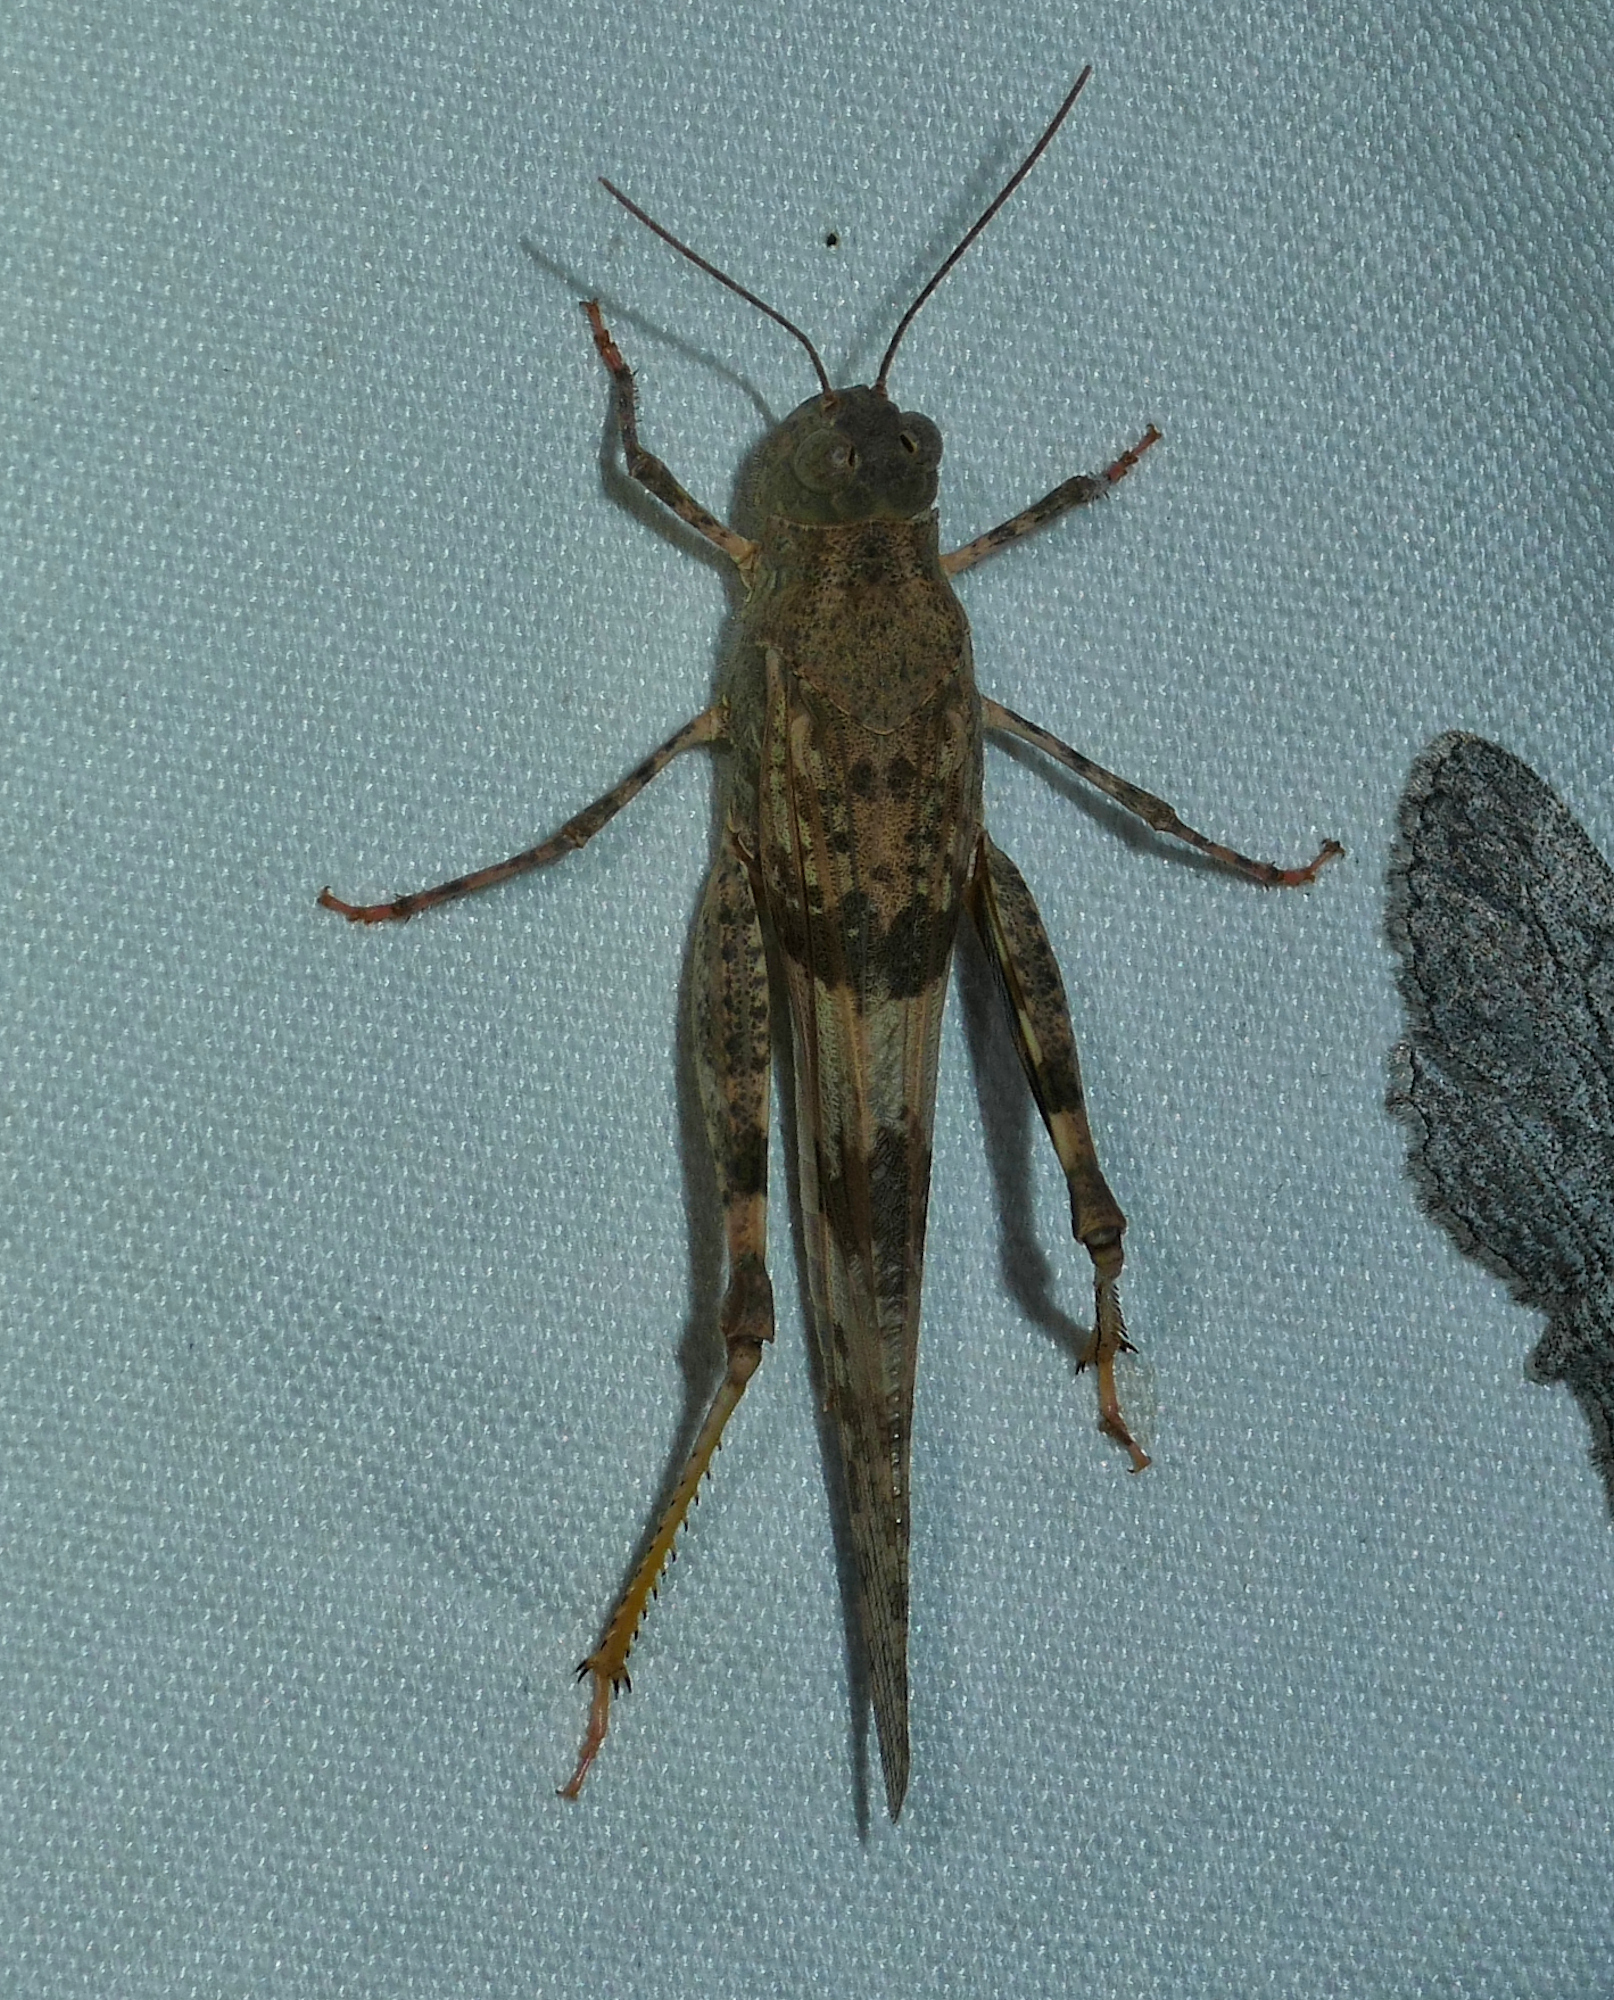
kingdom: Animalia
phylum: Arthropoda
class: Insecta
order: Orthoptera
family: Acrididae
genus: Trimerotropis
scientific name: Trimerotropis pallidipennis
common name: Pallid-winged grasshopper
